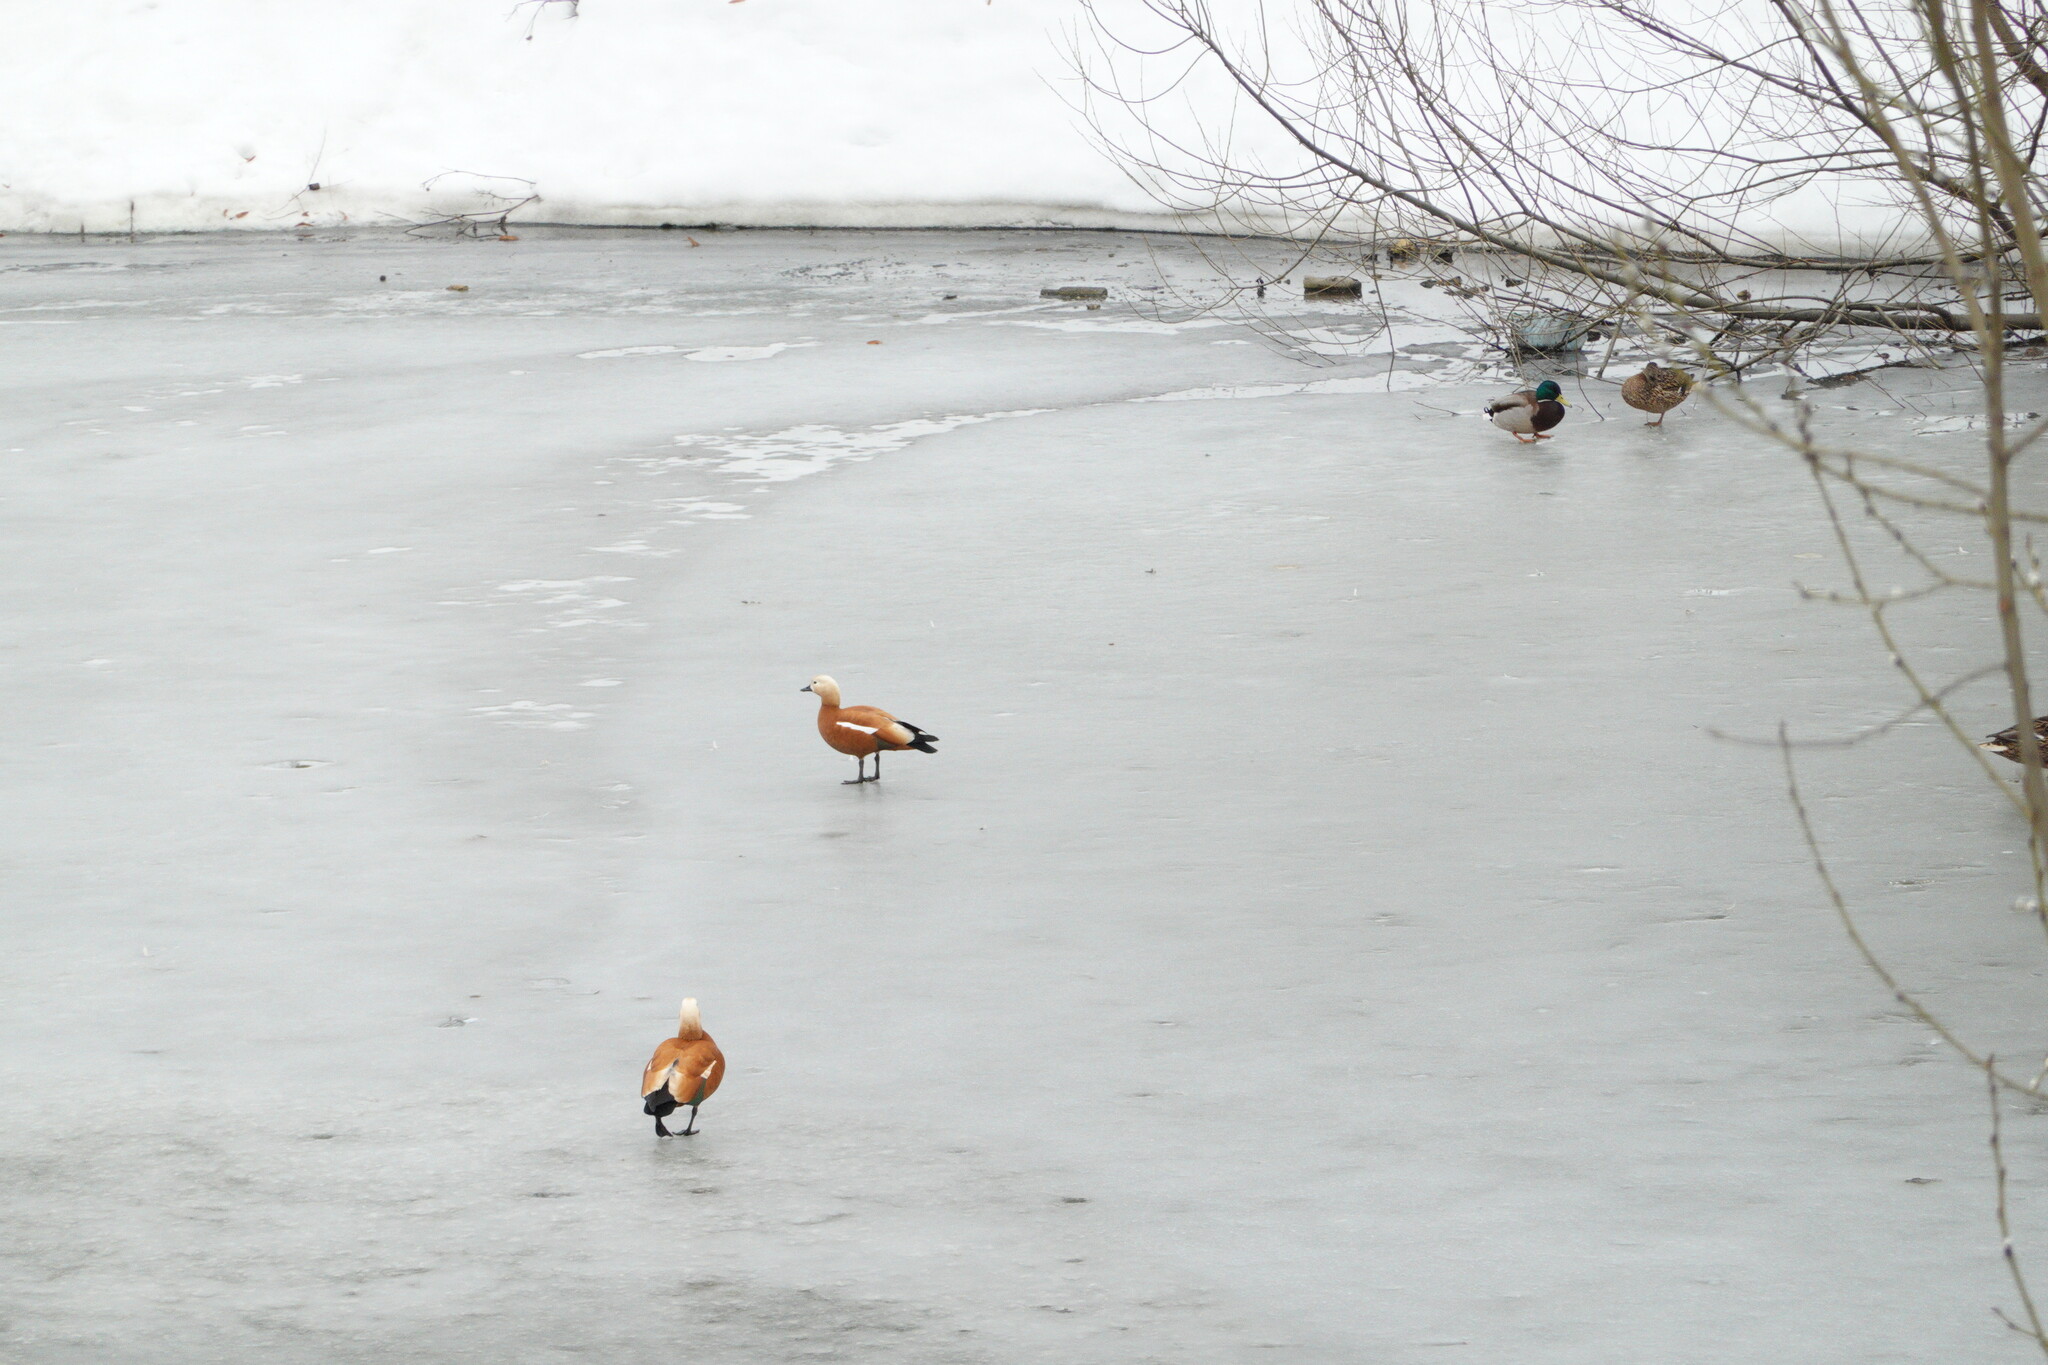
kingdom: Animalia
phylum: Chordata
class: Aves
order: Anseriformes
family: Anatidae
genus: Tadorna
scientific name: Tadorna ferruginea
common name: Ruddy shelduck
